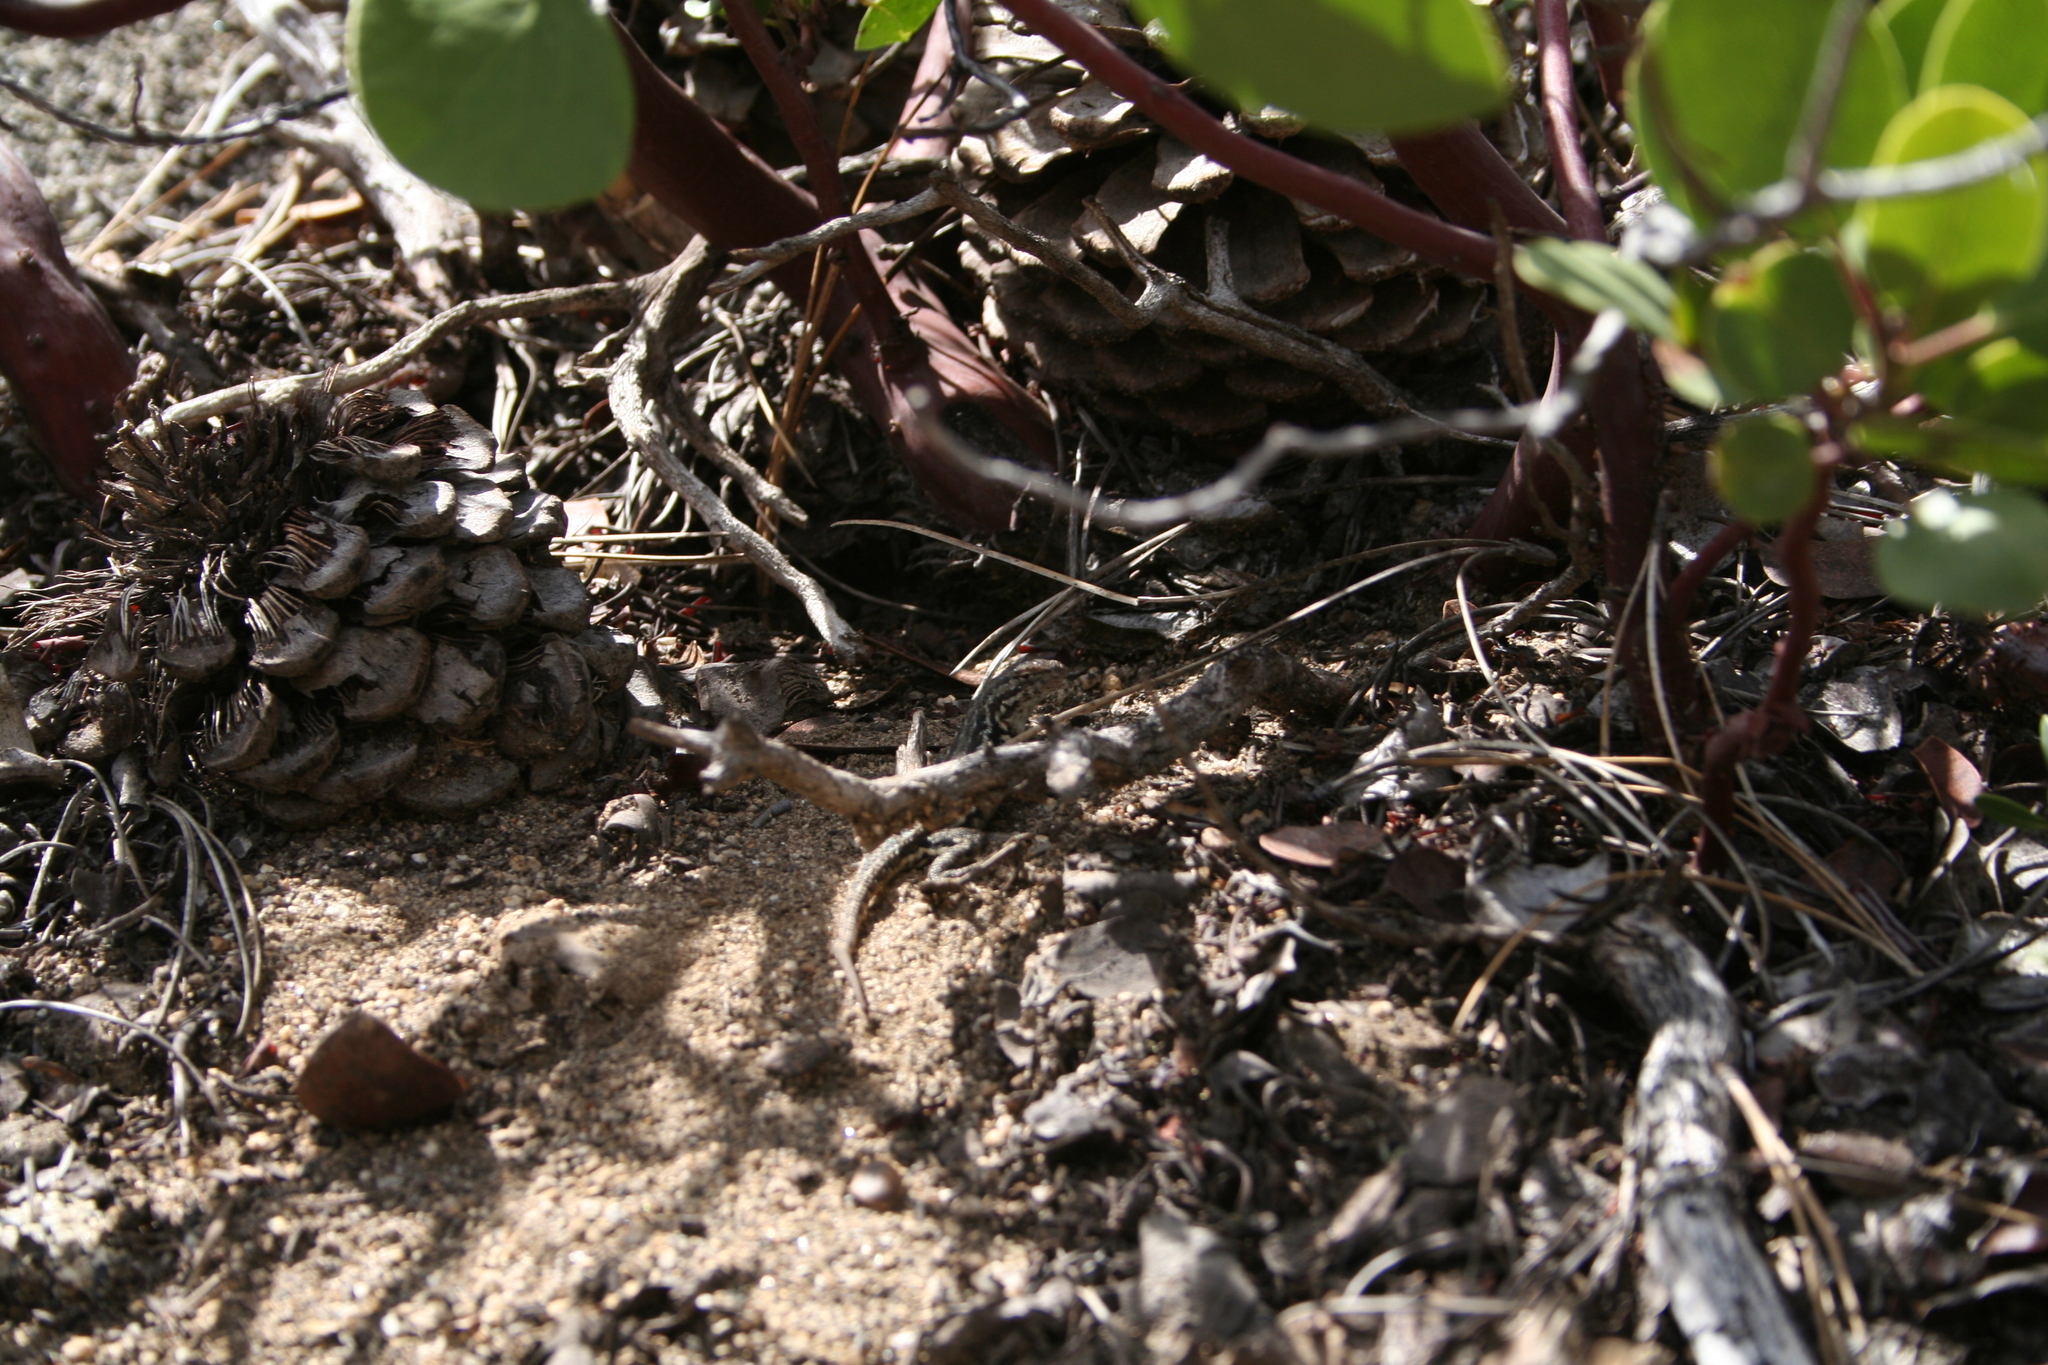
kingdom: Animalia
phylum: Chordata
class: Squamata
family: Phrynosomatidae
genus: Sceloporus
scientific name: Sceloporus graciosus
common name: Sagebrush lizard
